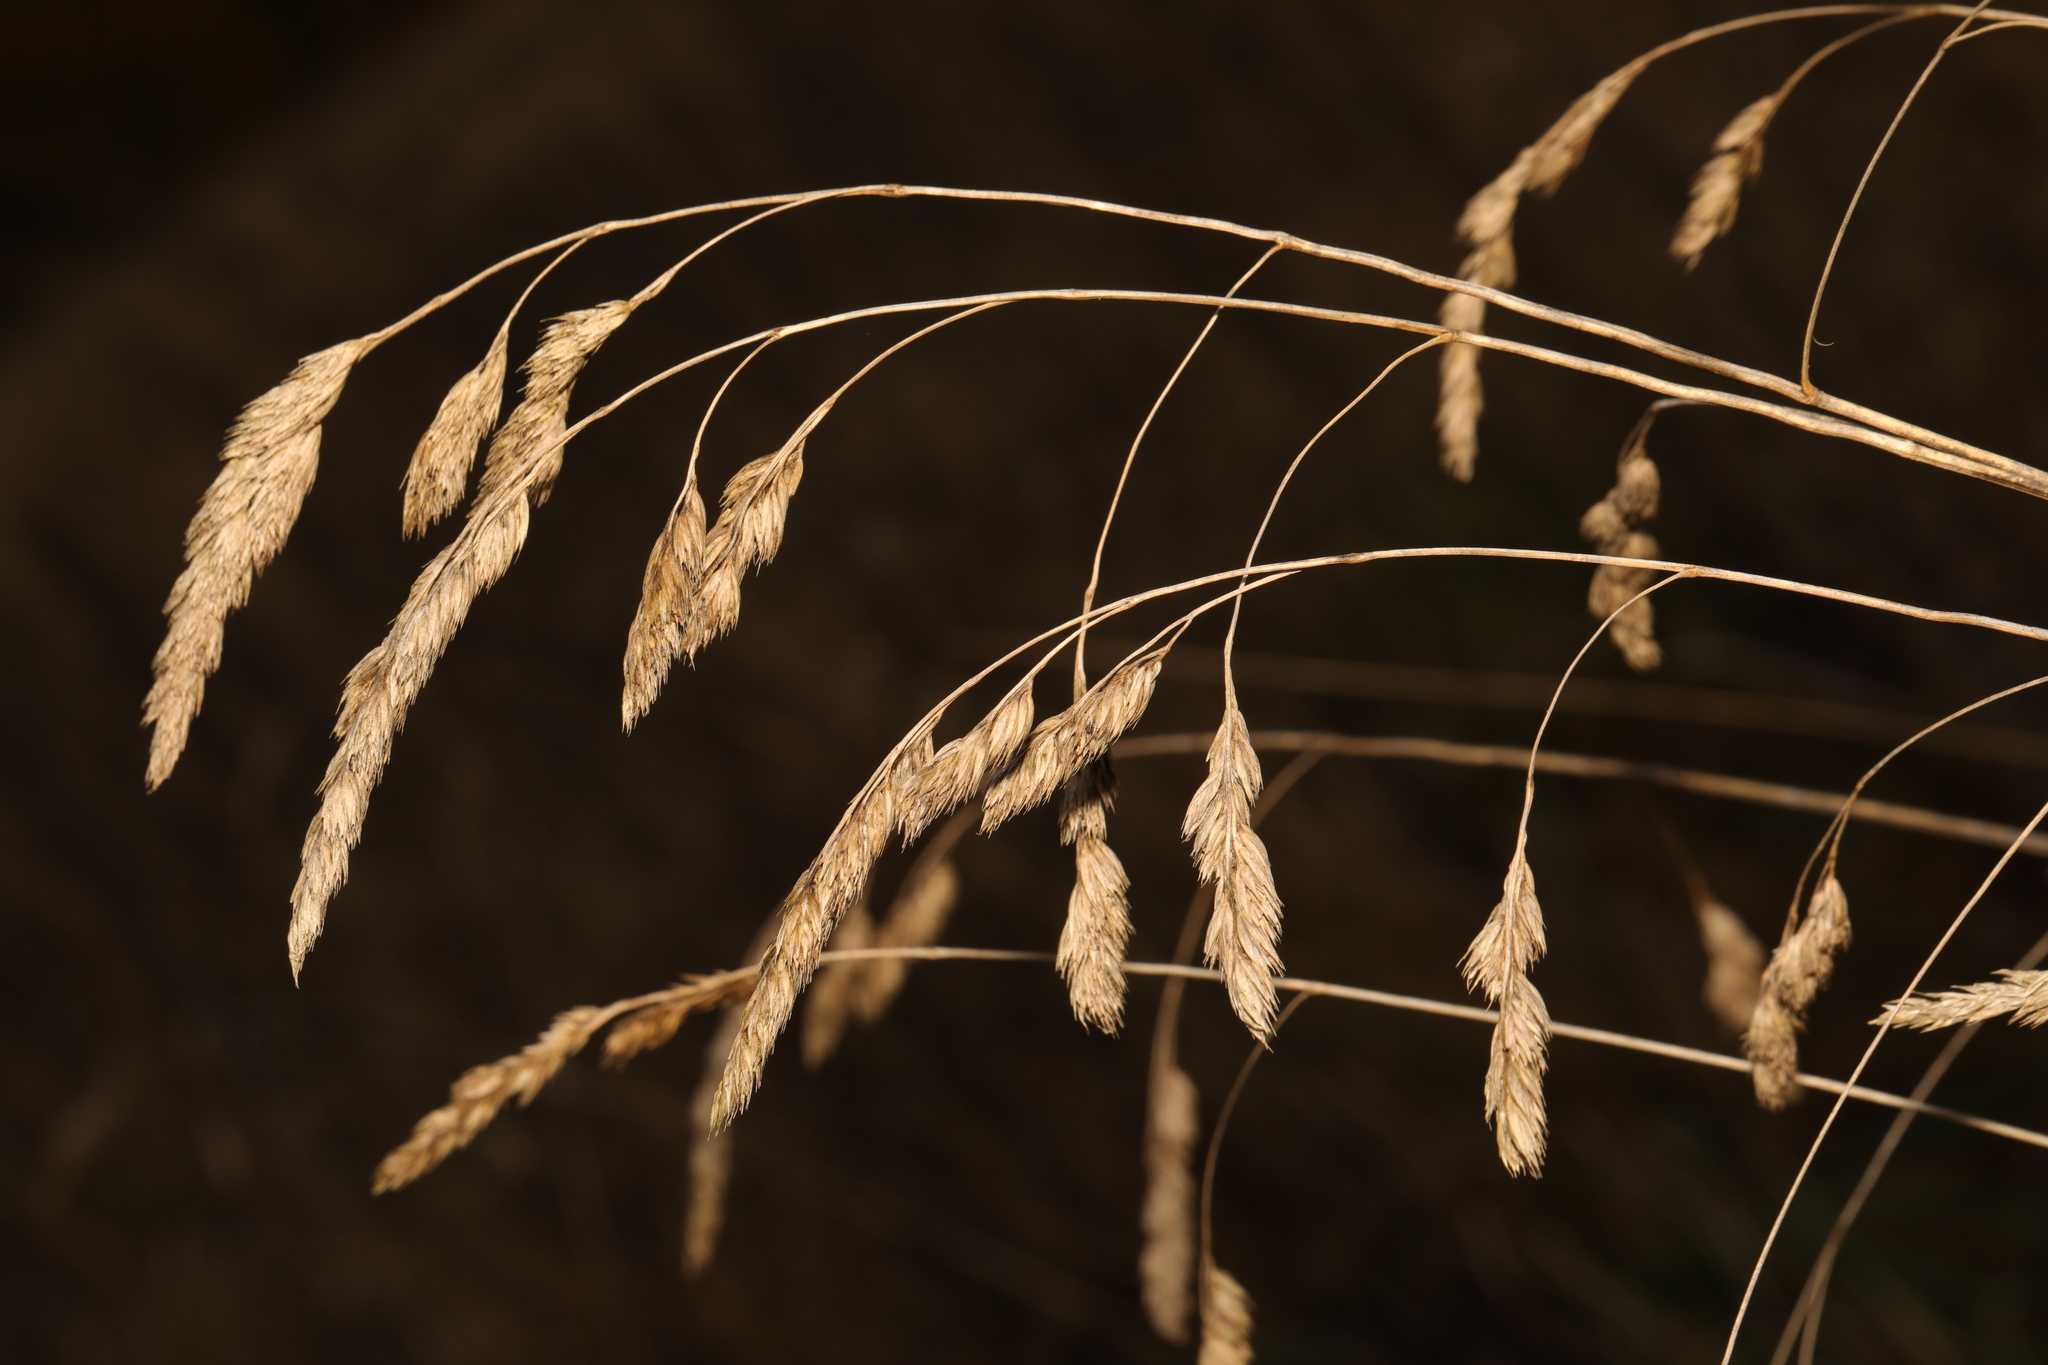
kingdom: Plantae
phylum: Tracheophyta
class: Liliopsida
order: Poales
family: Poaceae
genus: Dactylis
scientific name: Dactylis glomerata
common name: Orchardgrass
